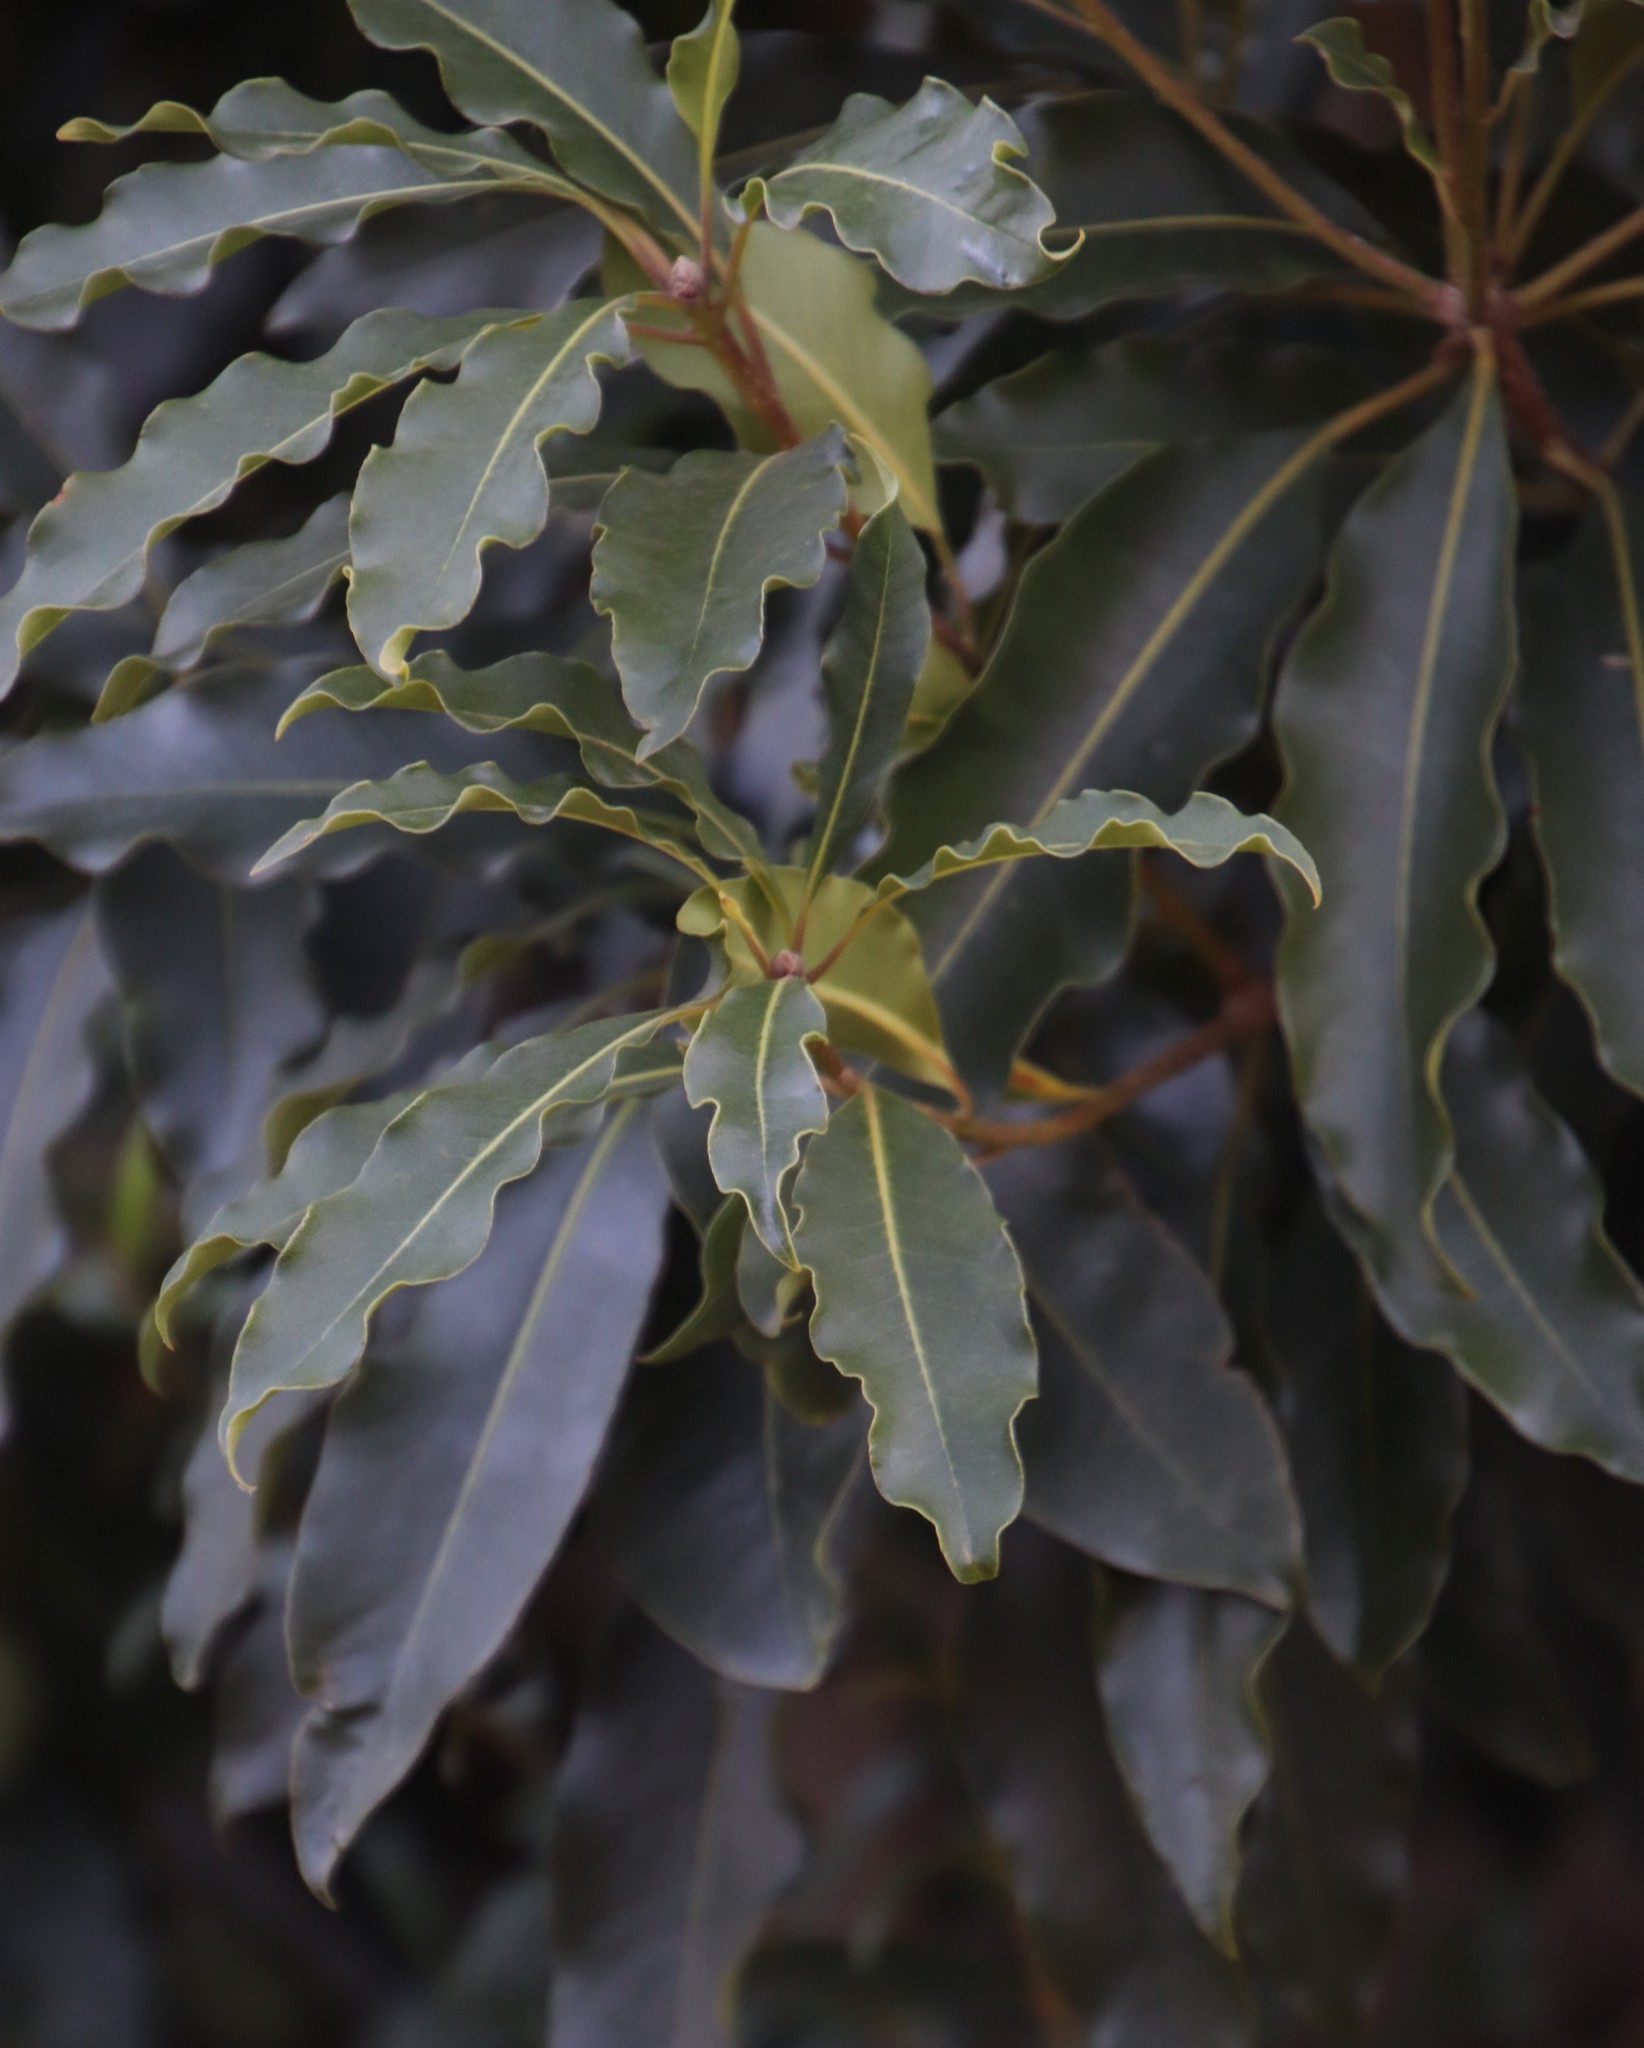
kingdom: Plantae
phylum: Tracheophyta
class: Magnoliopsida
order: Apiales
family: Pittosporaceae
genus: Pittosporum
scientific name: Pittosporum undulatum
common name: Australian cheesewood
